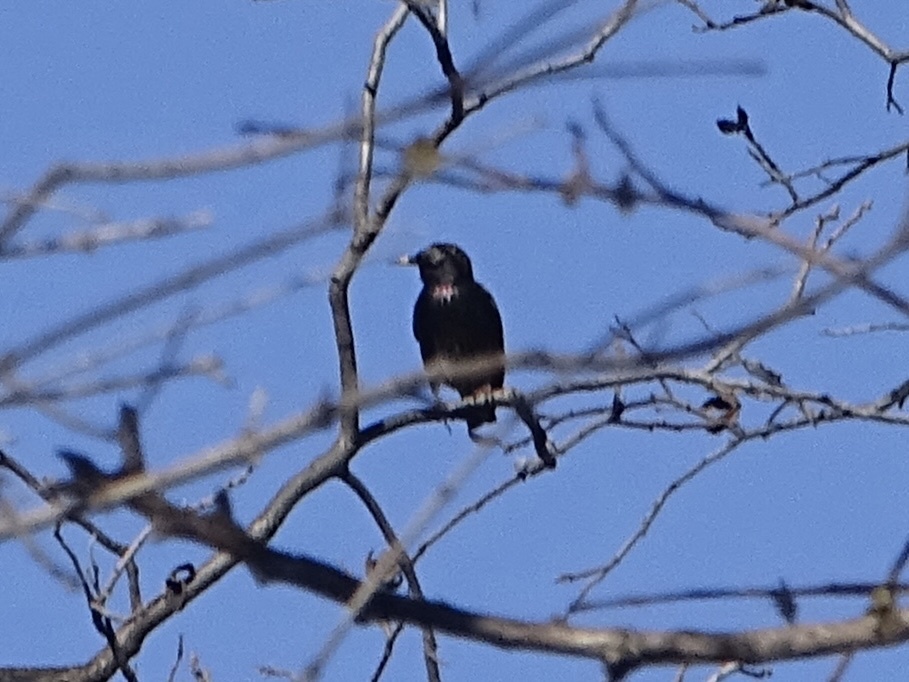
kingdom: Animalia
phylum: Chordata
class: Aves
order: Passeriformes
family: Sturnidae
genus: Sturnus
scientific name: Sturnus vulgaris
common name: Common starling
